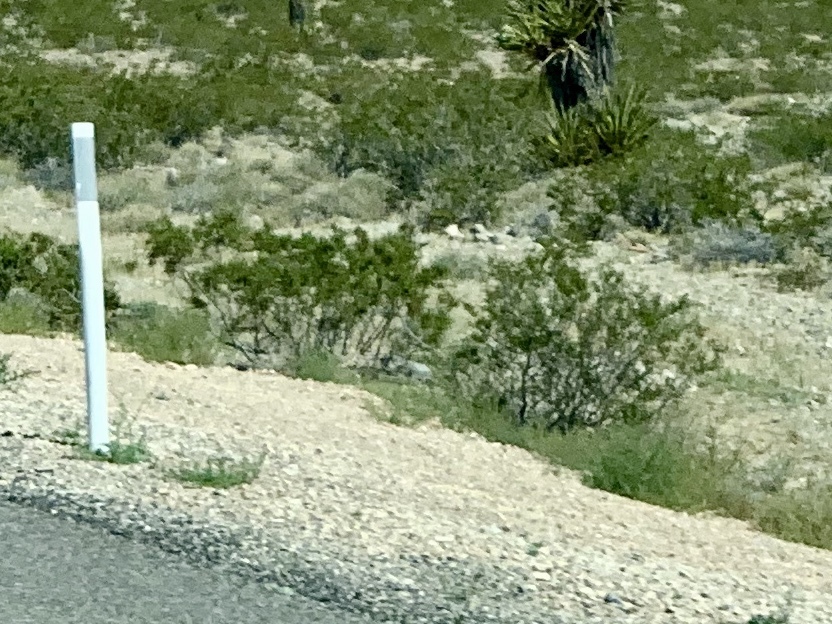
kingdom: Plantae
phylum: Tracheophyta
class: Magnoliopsida
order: Zygophyllales
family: Zygophyllaceae
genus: Larrea
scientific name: Larrea tridentata
